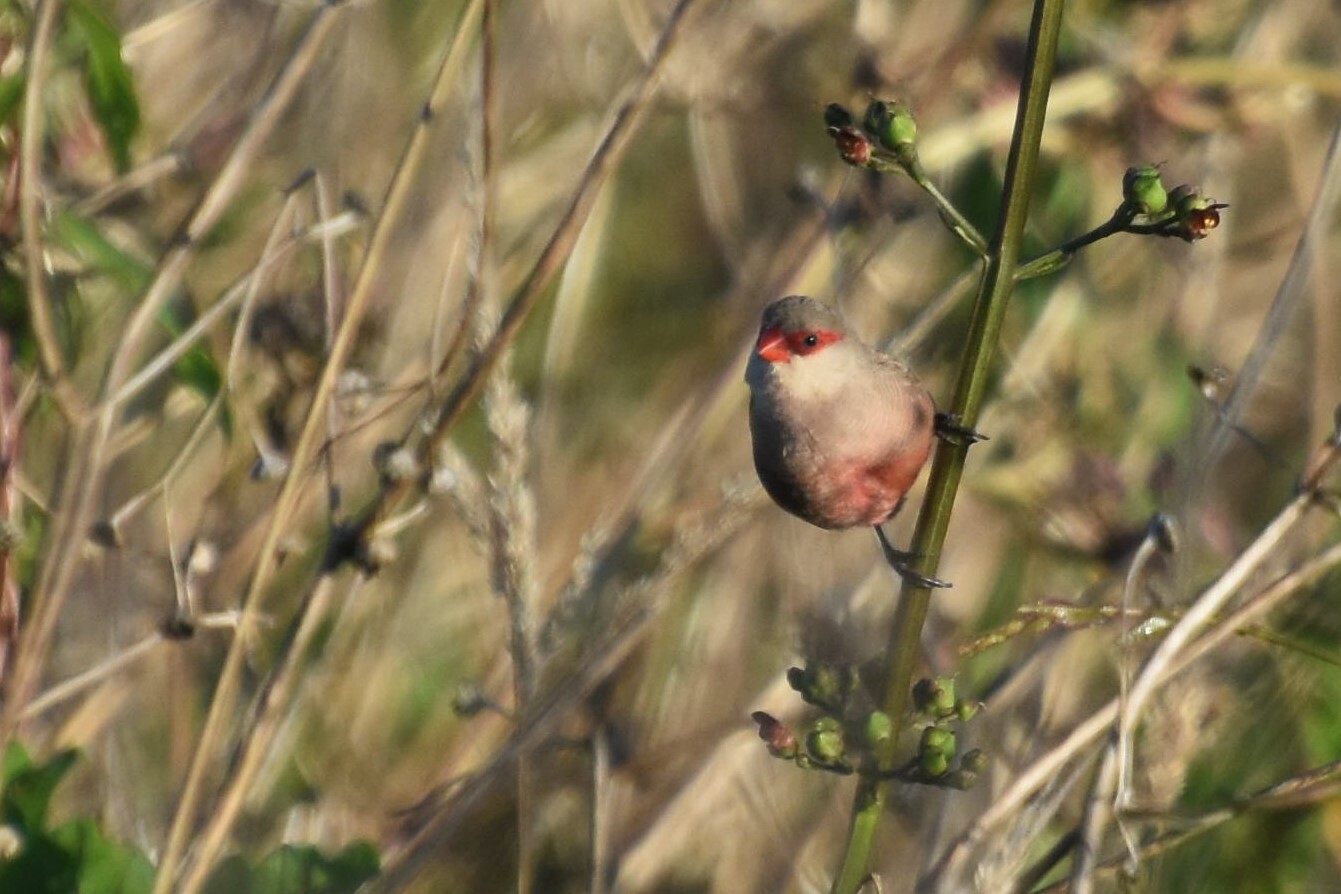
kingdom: Animalia
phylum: Chordata
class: Aves
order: Passeriformes
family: Estrildidae
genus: Estrilda
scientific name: Estrilda astrild
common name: Common waxbill
